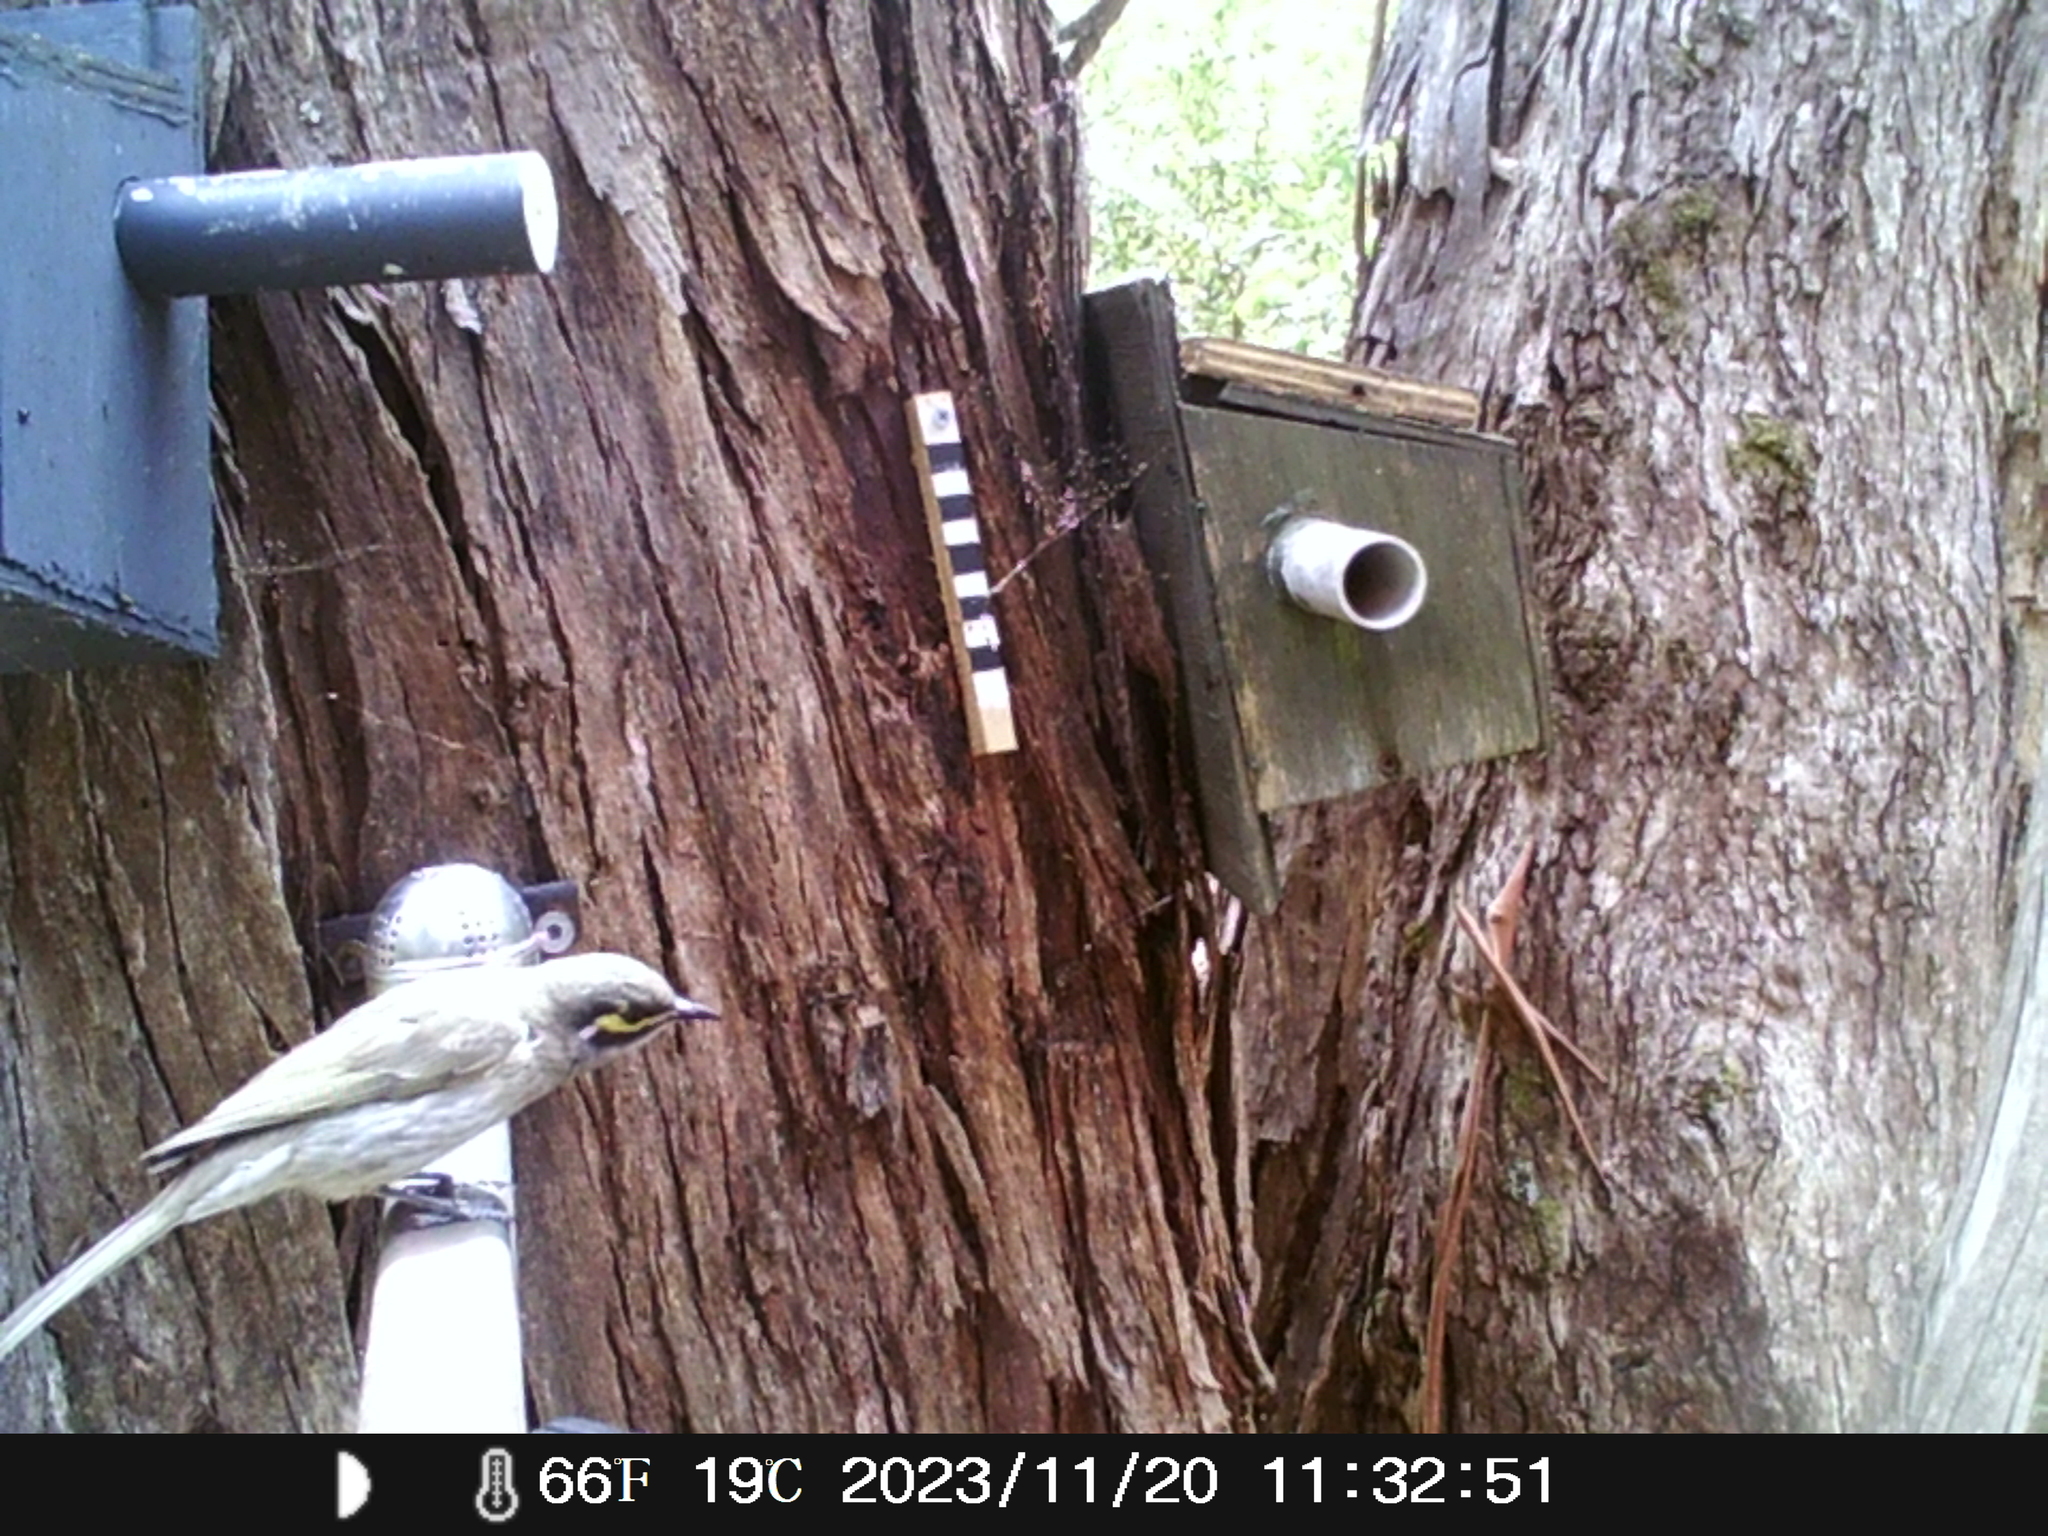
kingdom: Animalia
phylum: Chordata
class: Aves
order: Passeriformes
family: Meliphagidae
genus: Caligavis
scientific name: Caligavis chrysops
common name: Yellow-faced honeyeater
